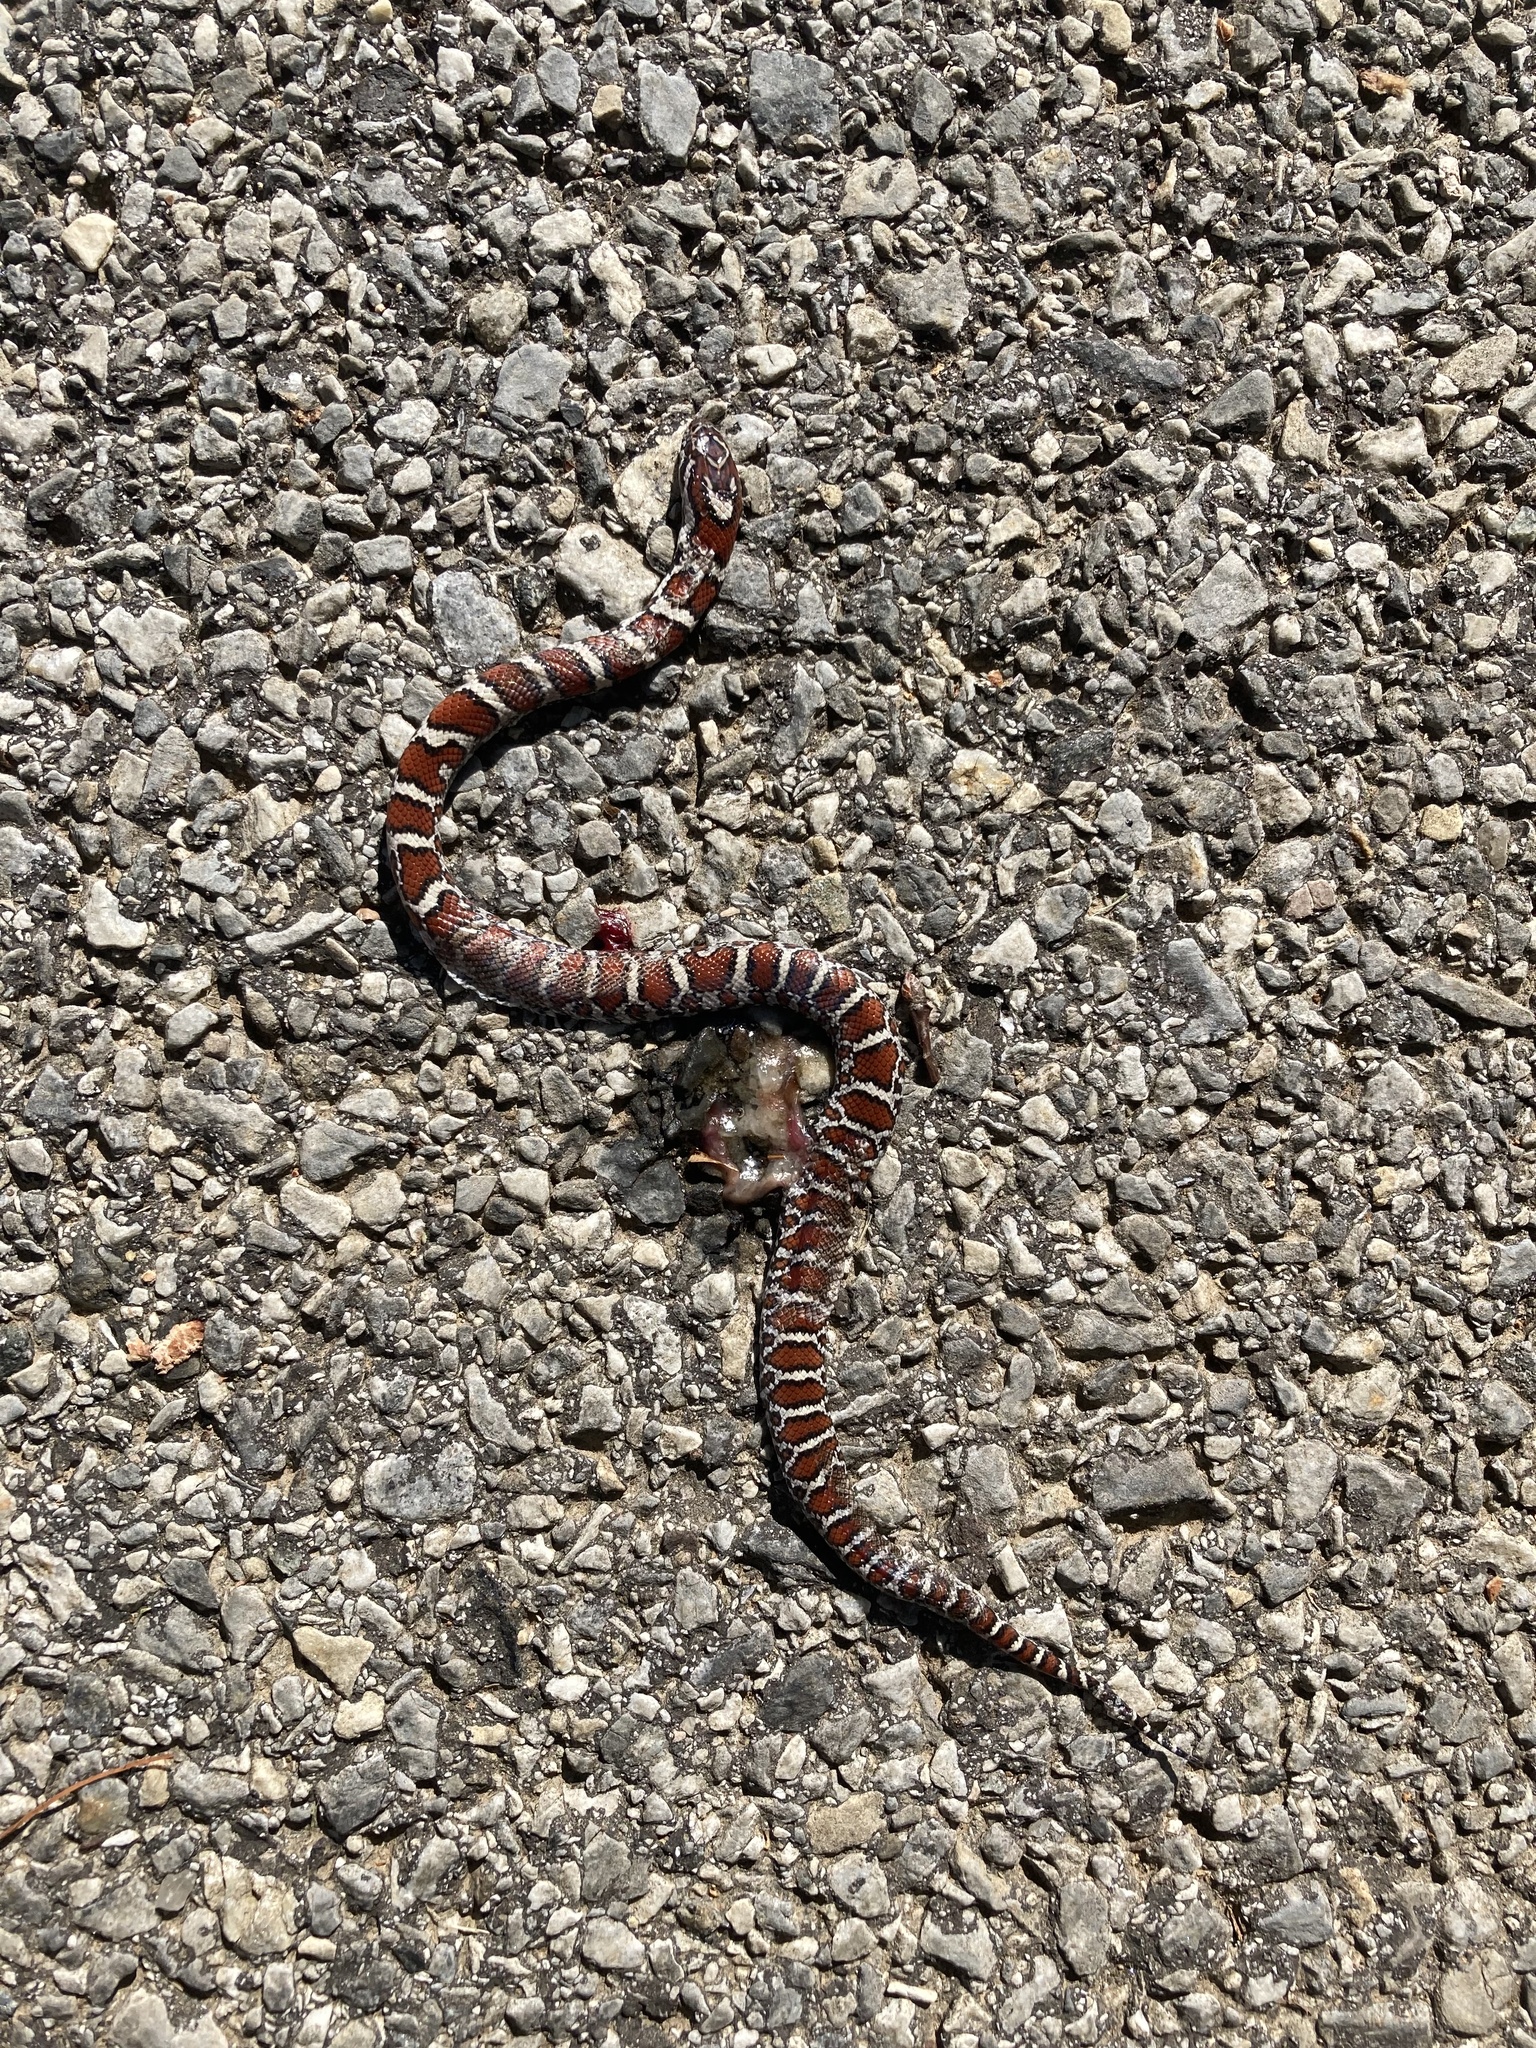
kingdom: Animalia
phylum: Chordata
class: Squamata
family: Colubridae
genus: Lampropeltis
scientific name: Lampropeltis triangulum
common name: Eastern milksnake
